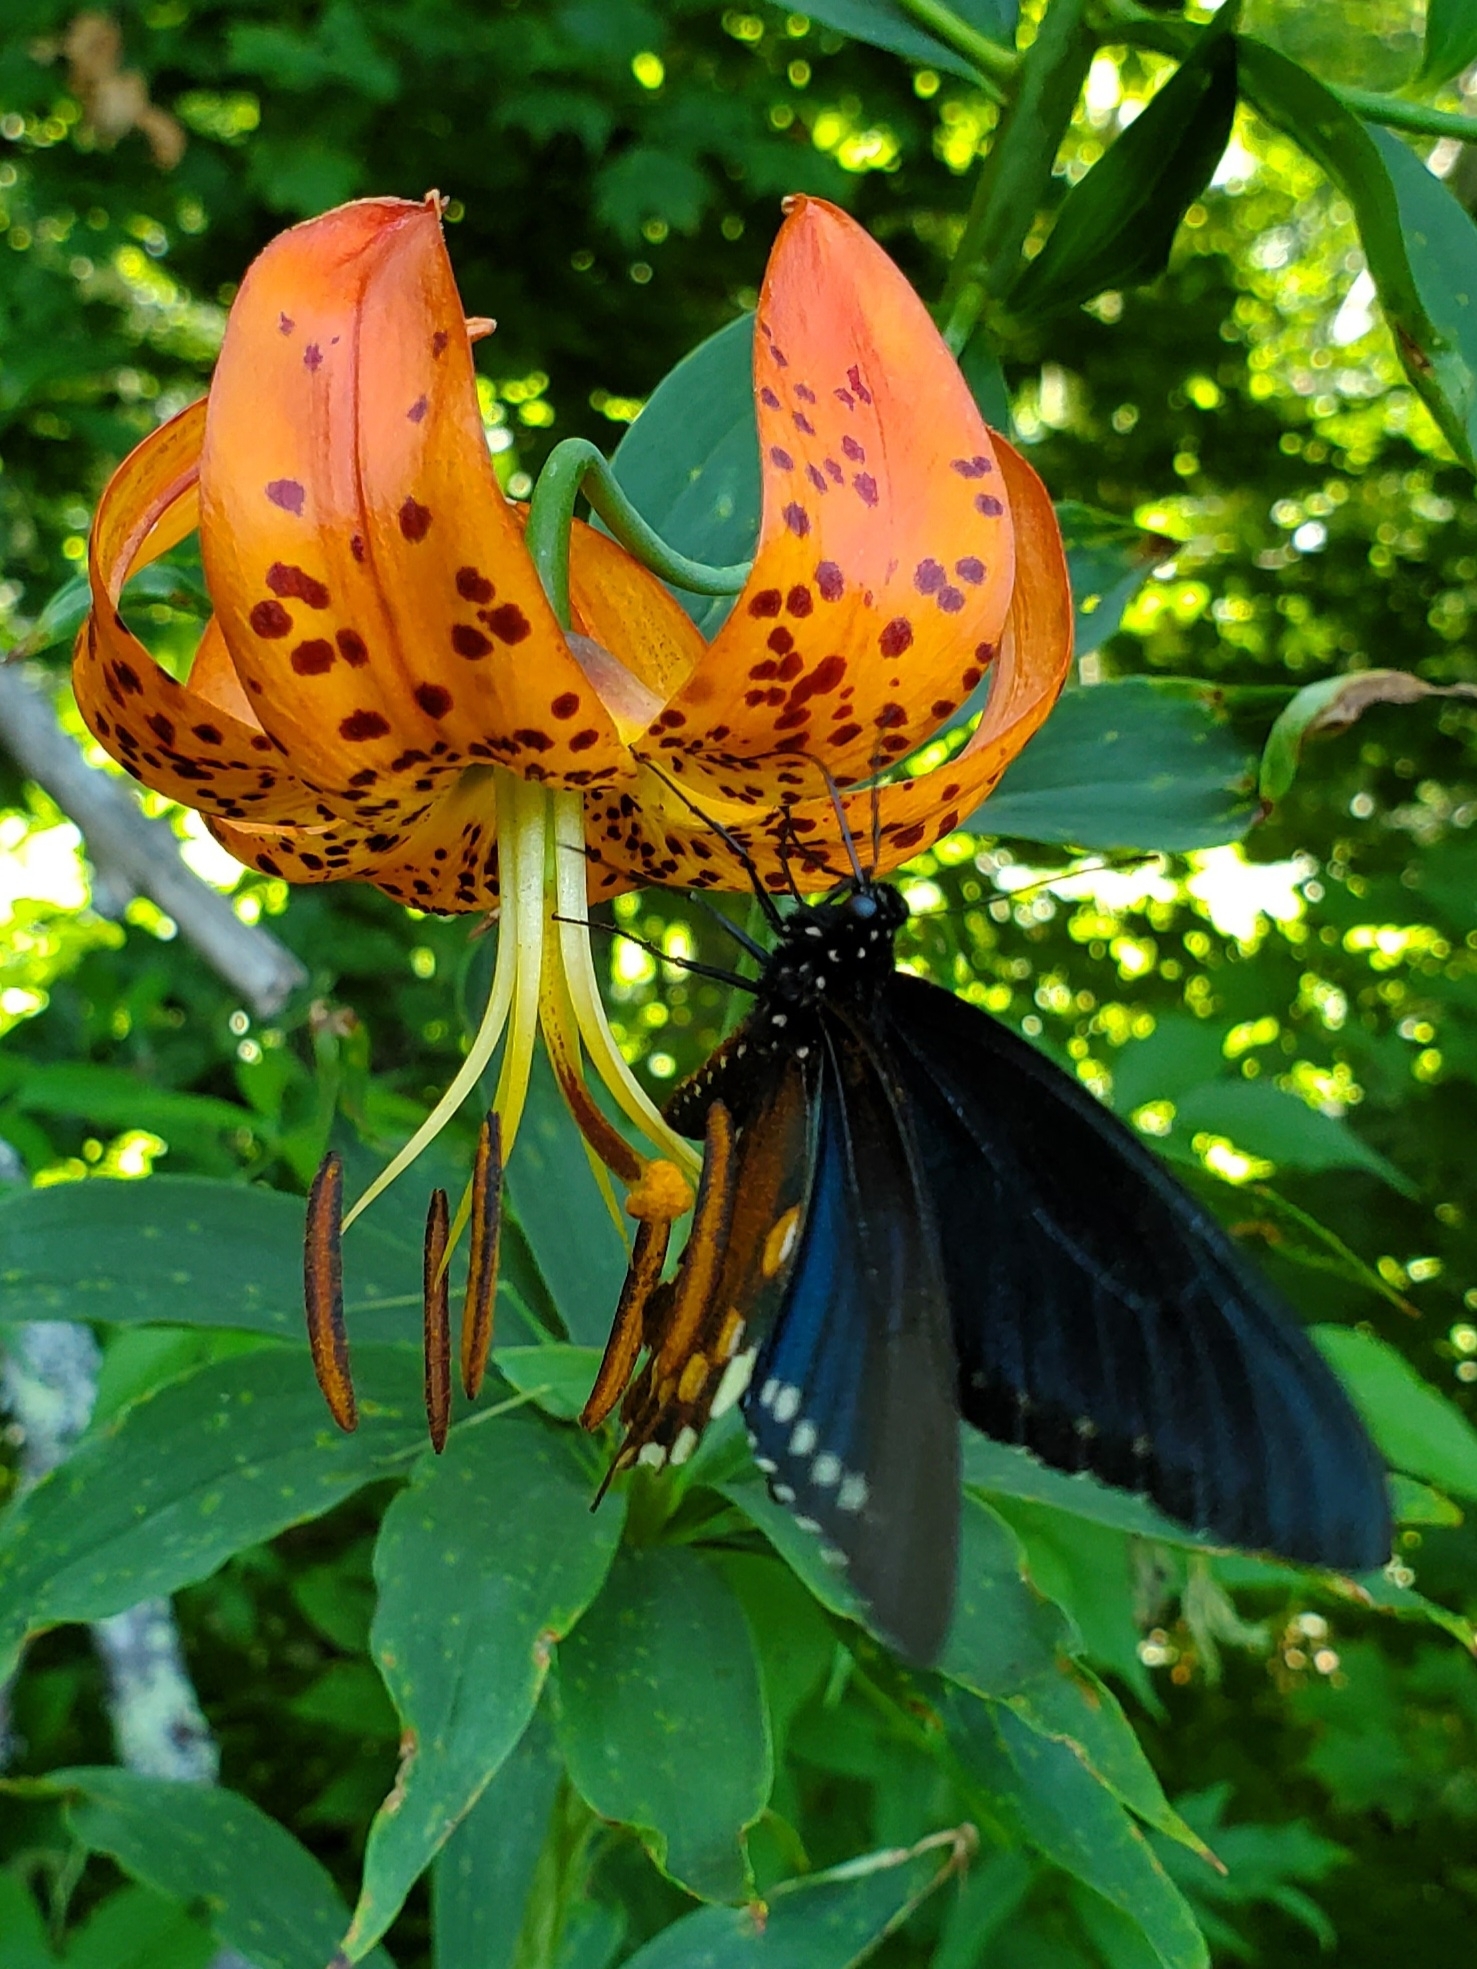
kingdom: Animalia
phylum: Arthropoda
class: Insecta
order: Lepidoptera
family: Papilionidae
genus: Battus
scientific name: Battus philenor
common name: Pipevine swallowtail
